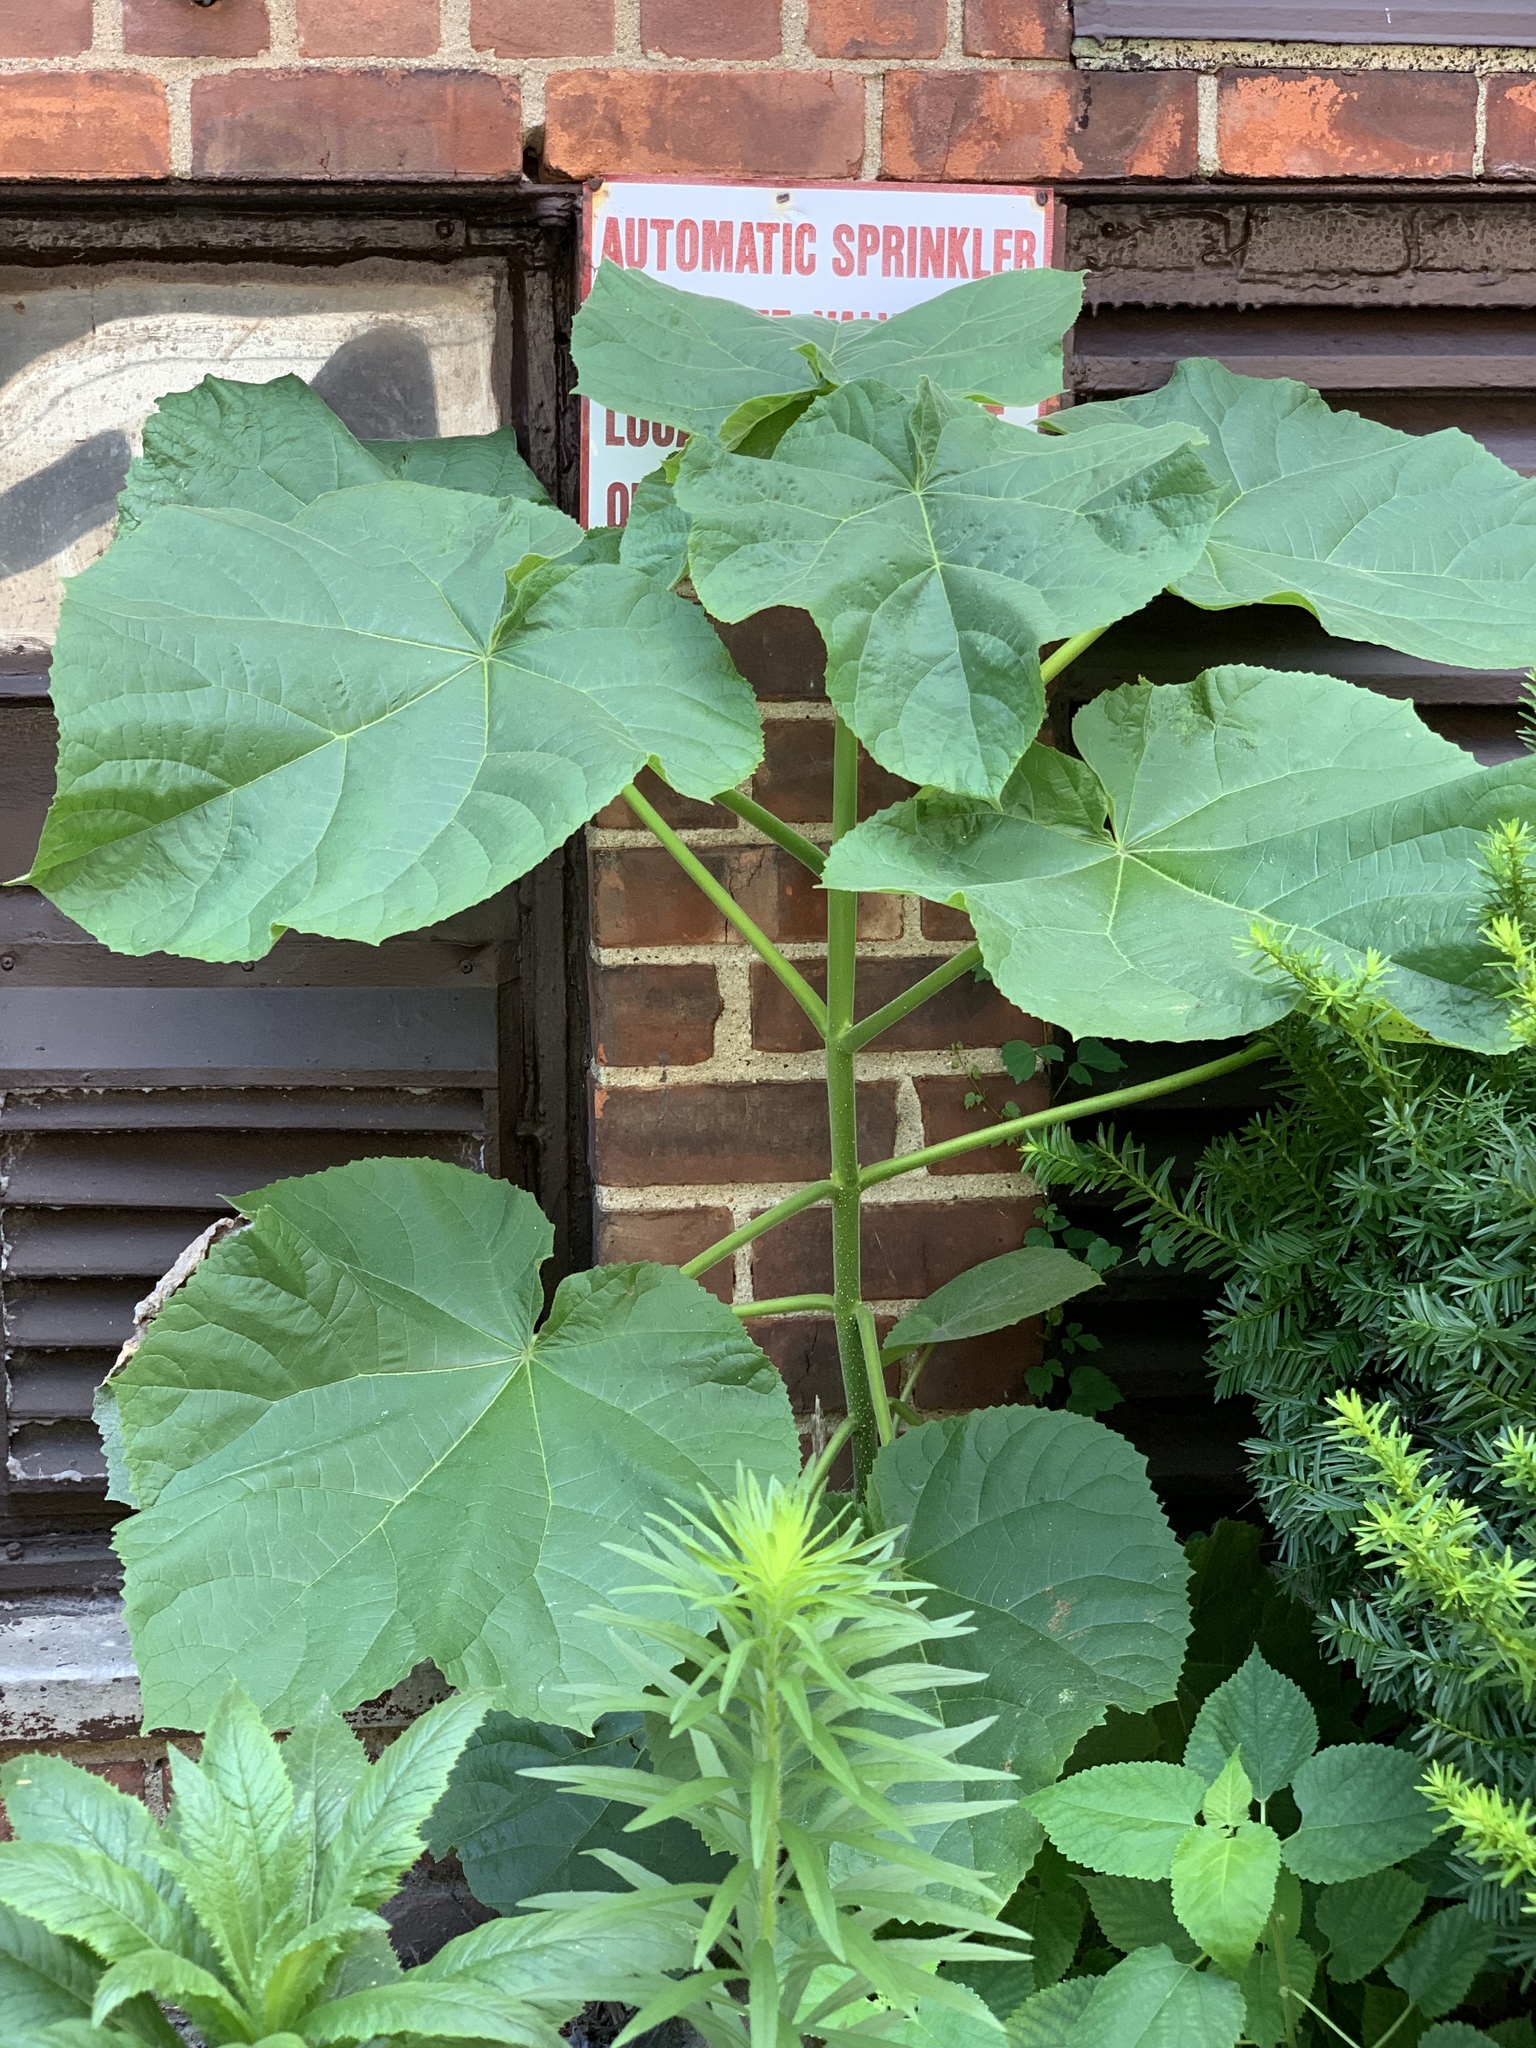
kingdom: Plantae
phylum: Tracheophyta
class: Magnoliopsida
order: Lamiales
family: Paulowniaceae
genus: Paulownia
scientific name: Paulownia tomentosa
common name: Foxglove-tree
